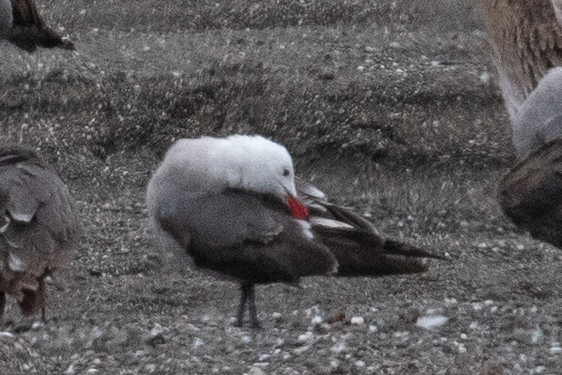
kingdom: Animalia
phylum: Chordata
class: Aves
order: Charadriiformes
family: Laridae
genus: Larus
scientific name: Larus heermanni
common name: Heermann's gull
